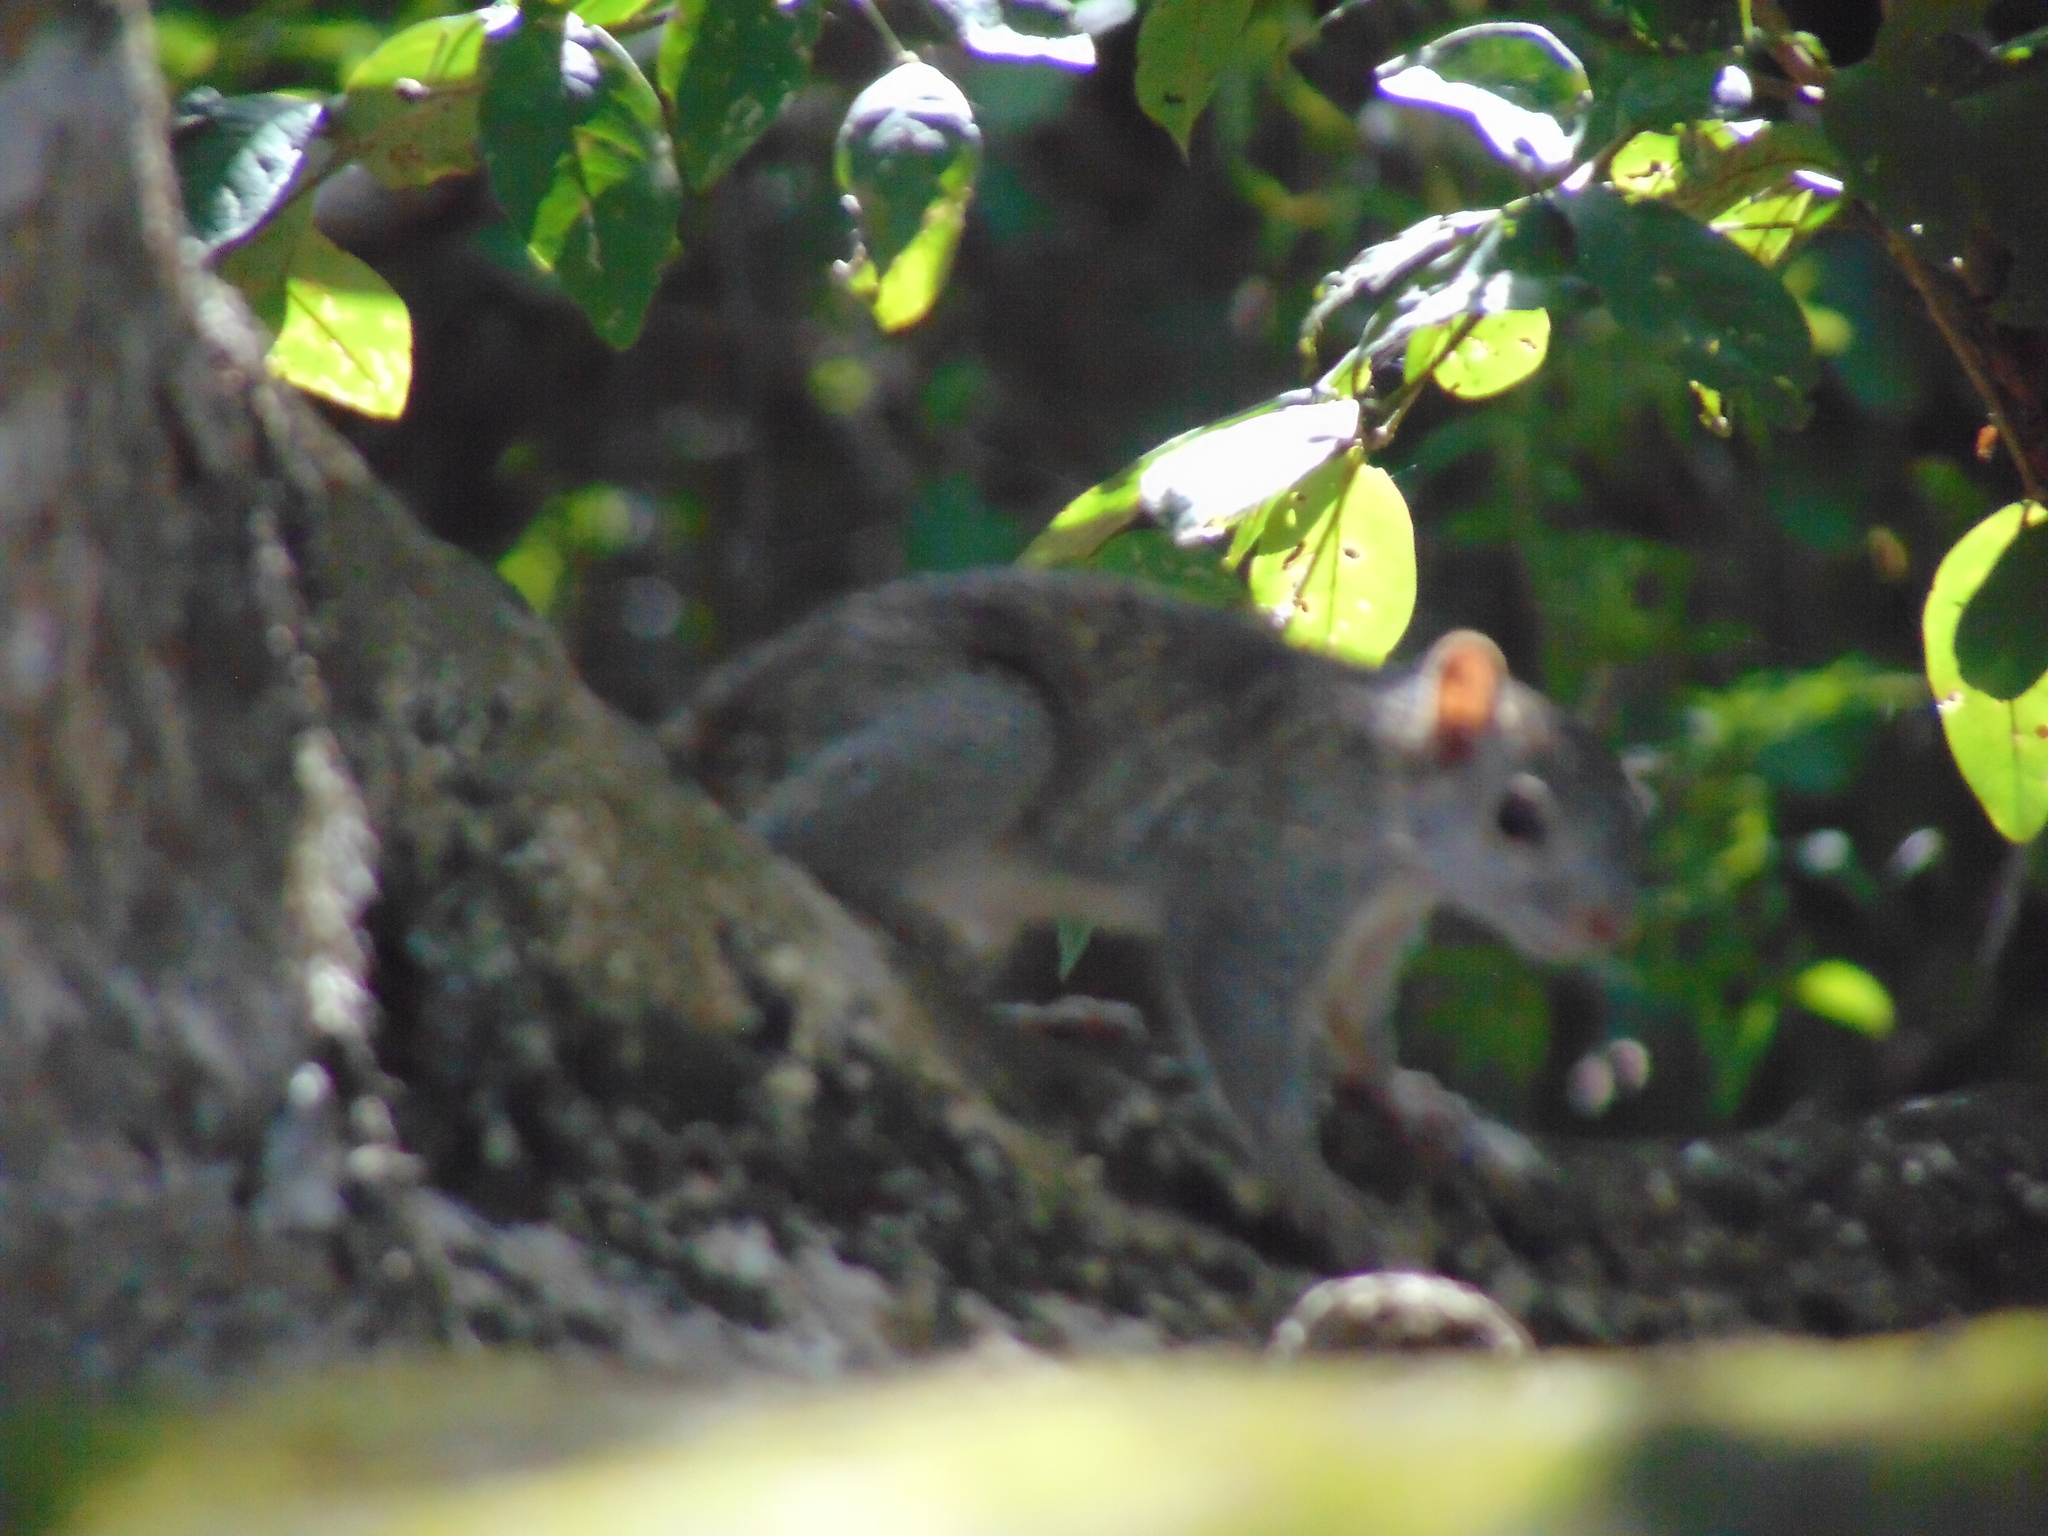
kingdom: Animalia
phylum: Chordata
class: Mammalia
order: Rodentia
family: Sciuridae
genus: Sciurus
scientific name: Sciurus yucatanensis
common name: Yucatan squirrel
